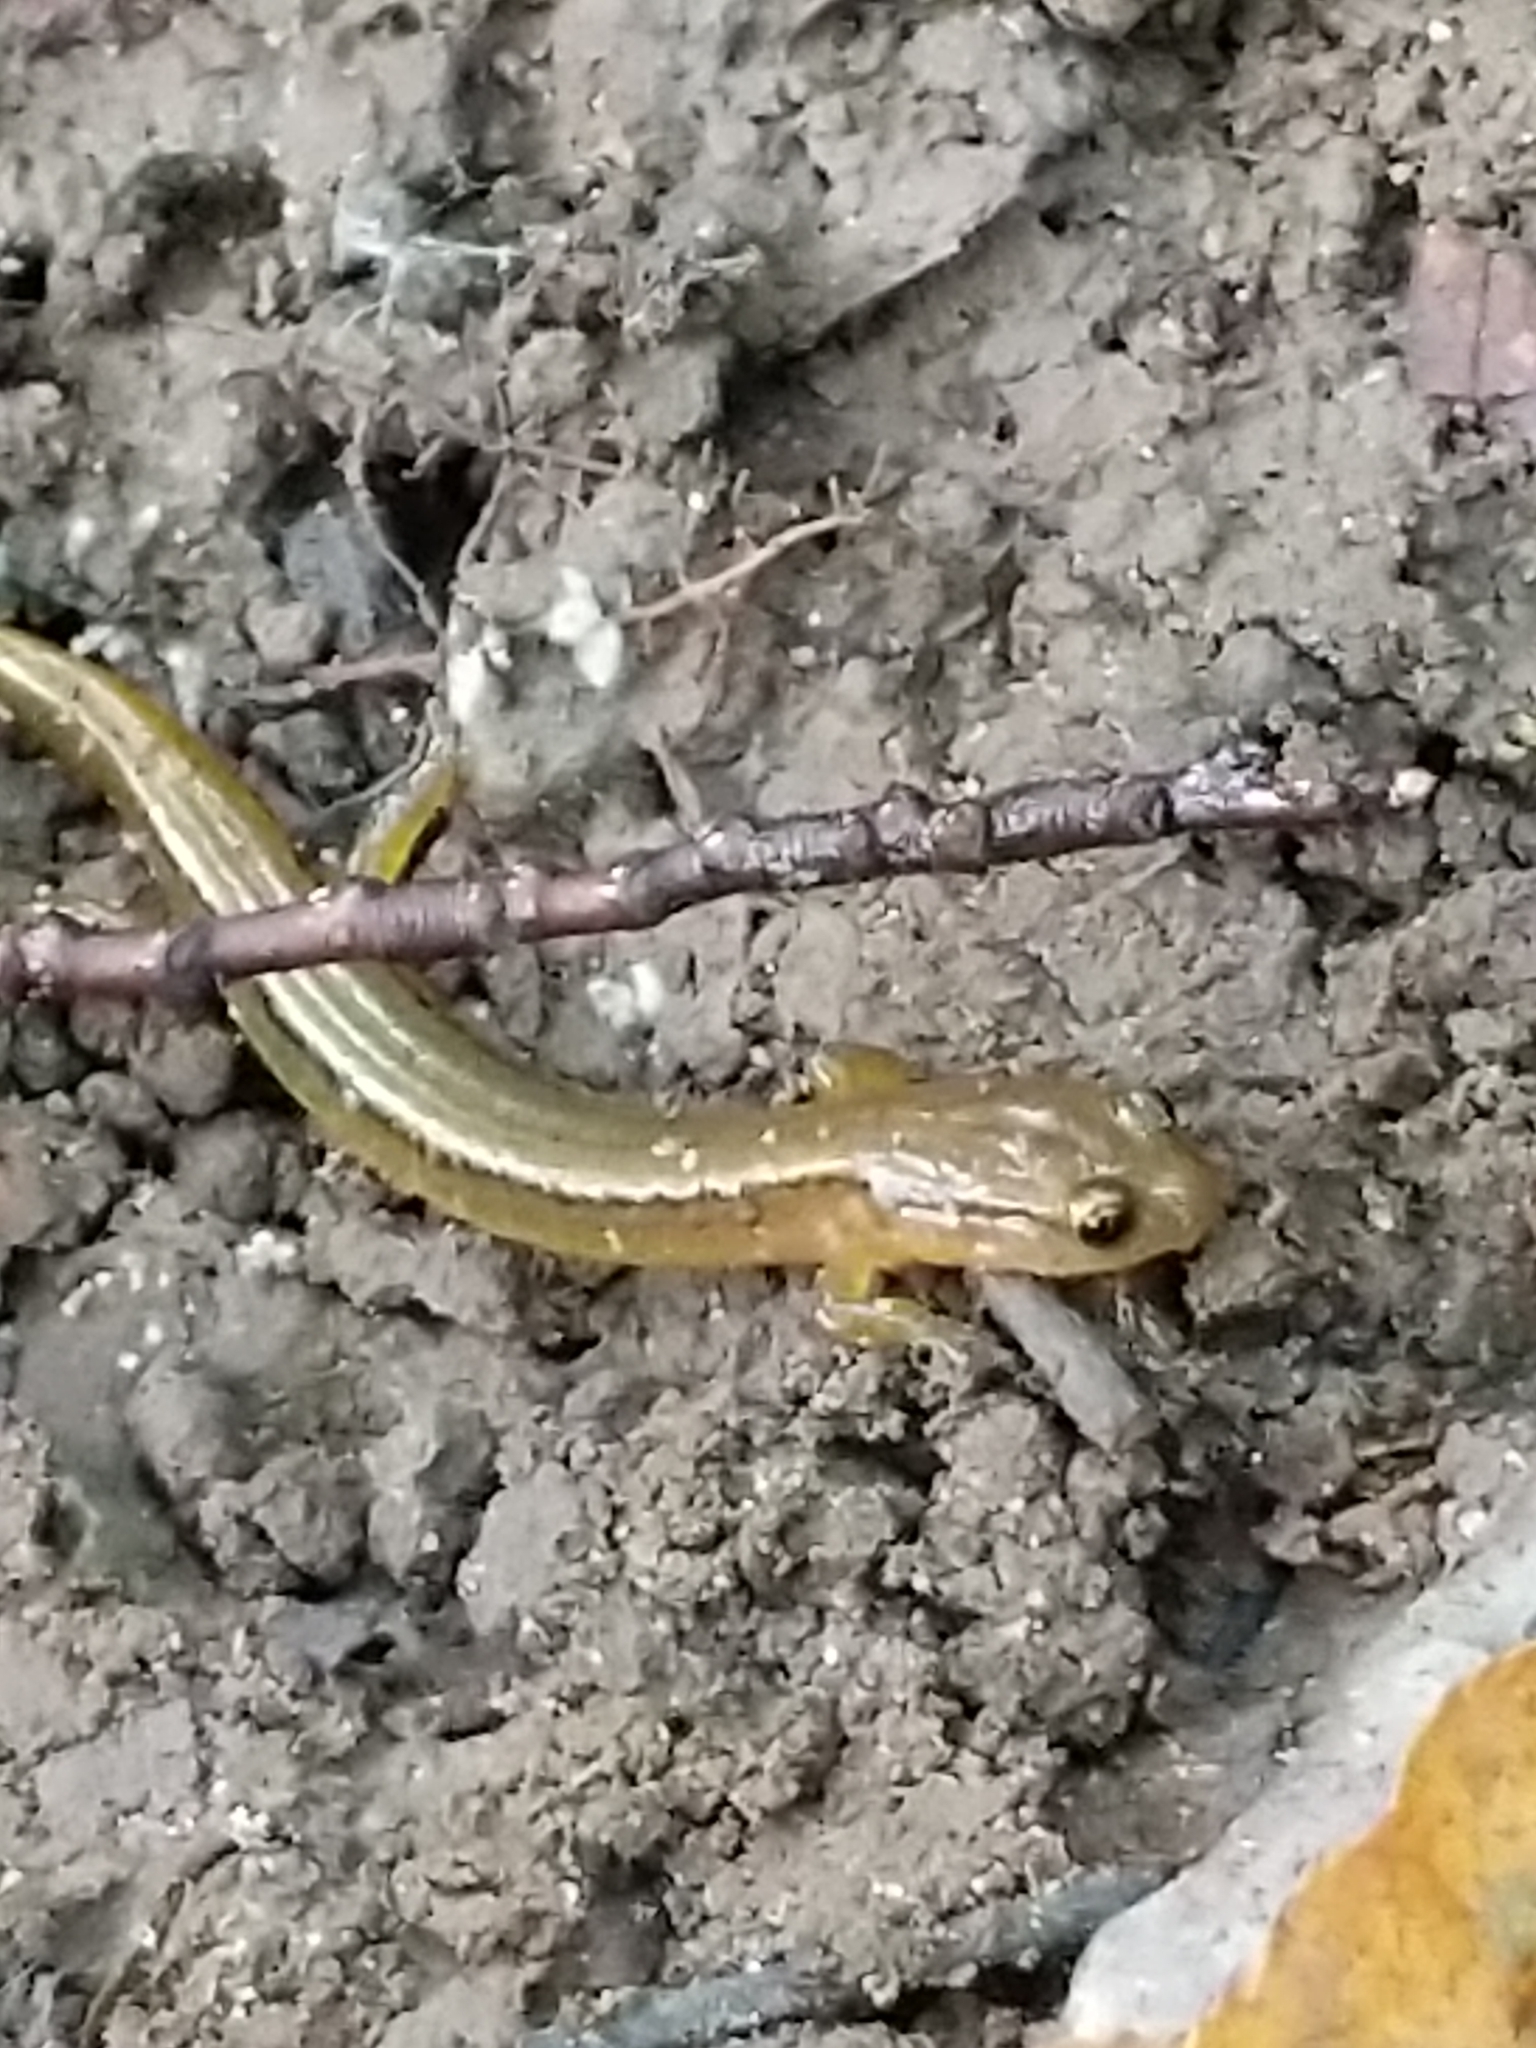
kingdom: Animalia
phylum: Chordata
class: Amphibia
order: Caudata
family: Plethodontidae
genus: Eurycea
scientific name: Eurycea bislineata
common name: Northern two-lined salamander
